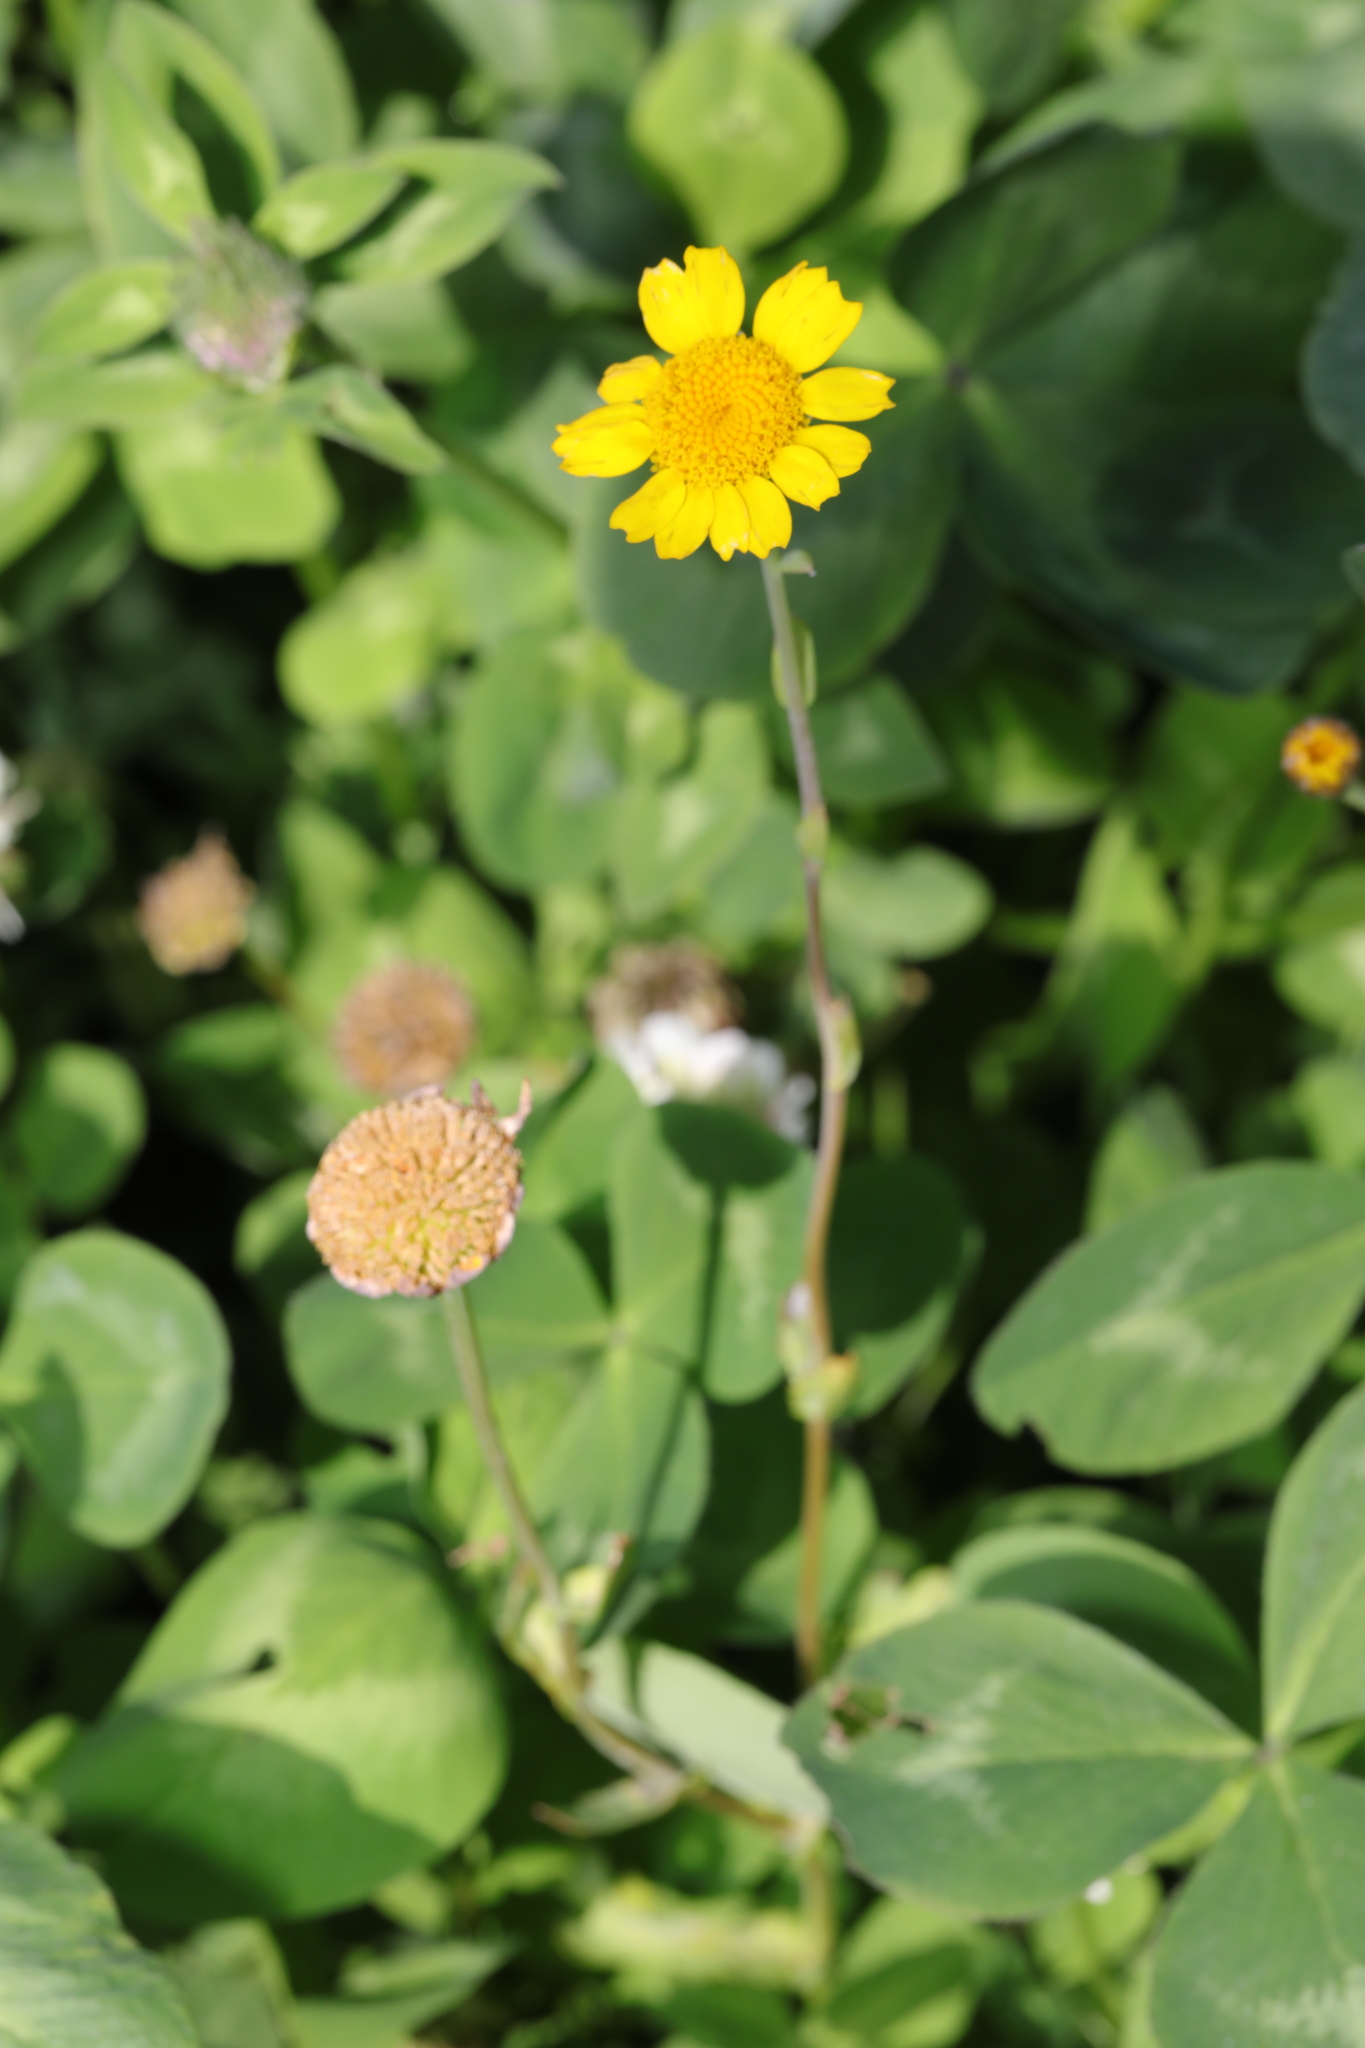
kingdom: Plantae
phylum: Tracheophyta
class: Magnoliopsida
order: Asterales
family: Asteraceae
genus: Glebionis
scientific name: Glebionis segetum
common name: Corndaisy
